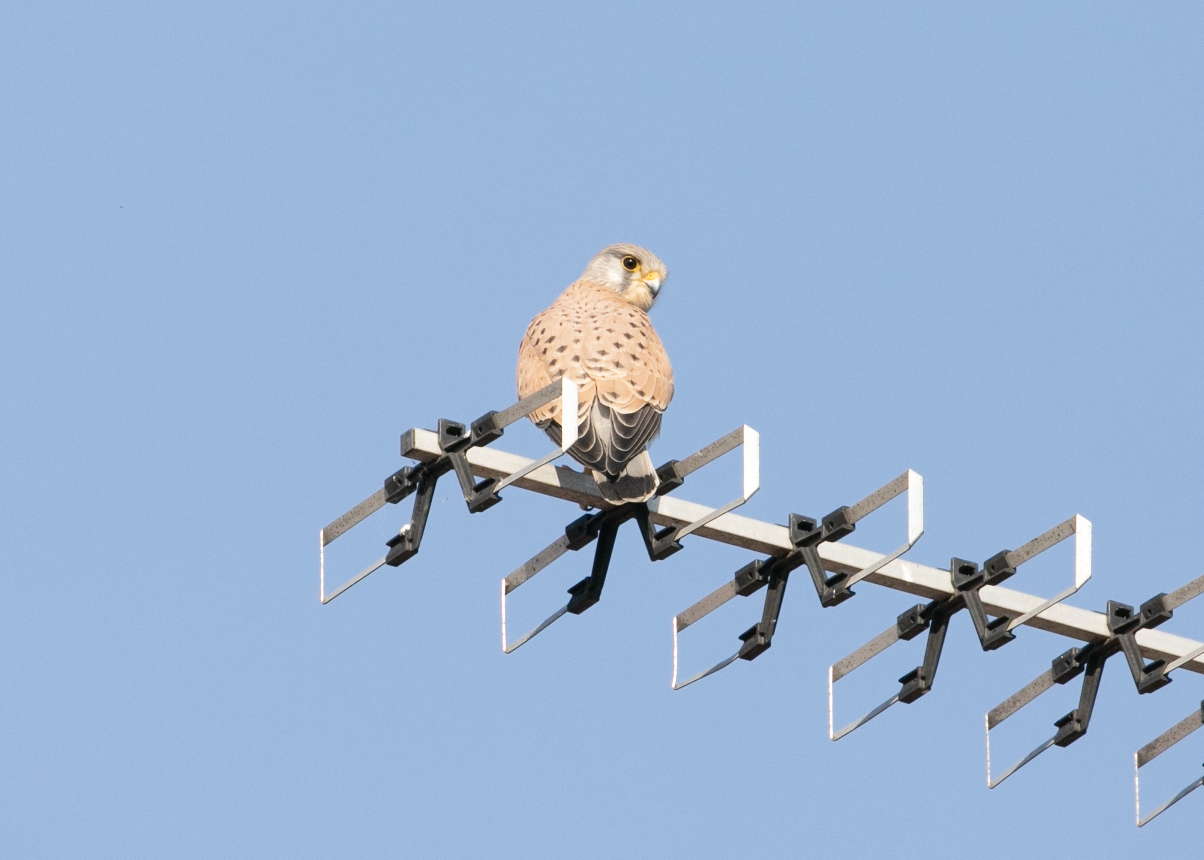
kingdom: Animalia
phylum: Chordata
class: Aves
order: Falconiformes
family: Falconidae
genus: Falco
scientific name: Falco tinnunculus
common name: Common kestrel
